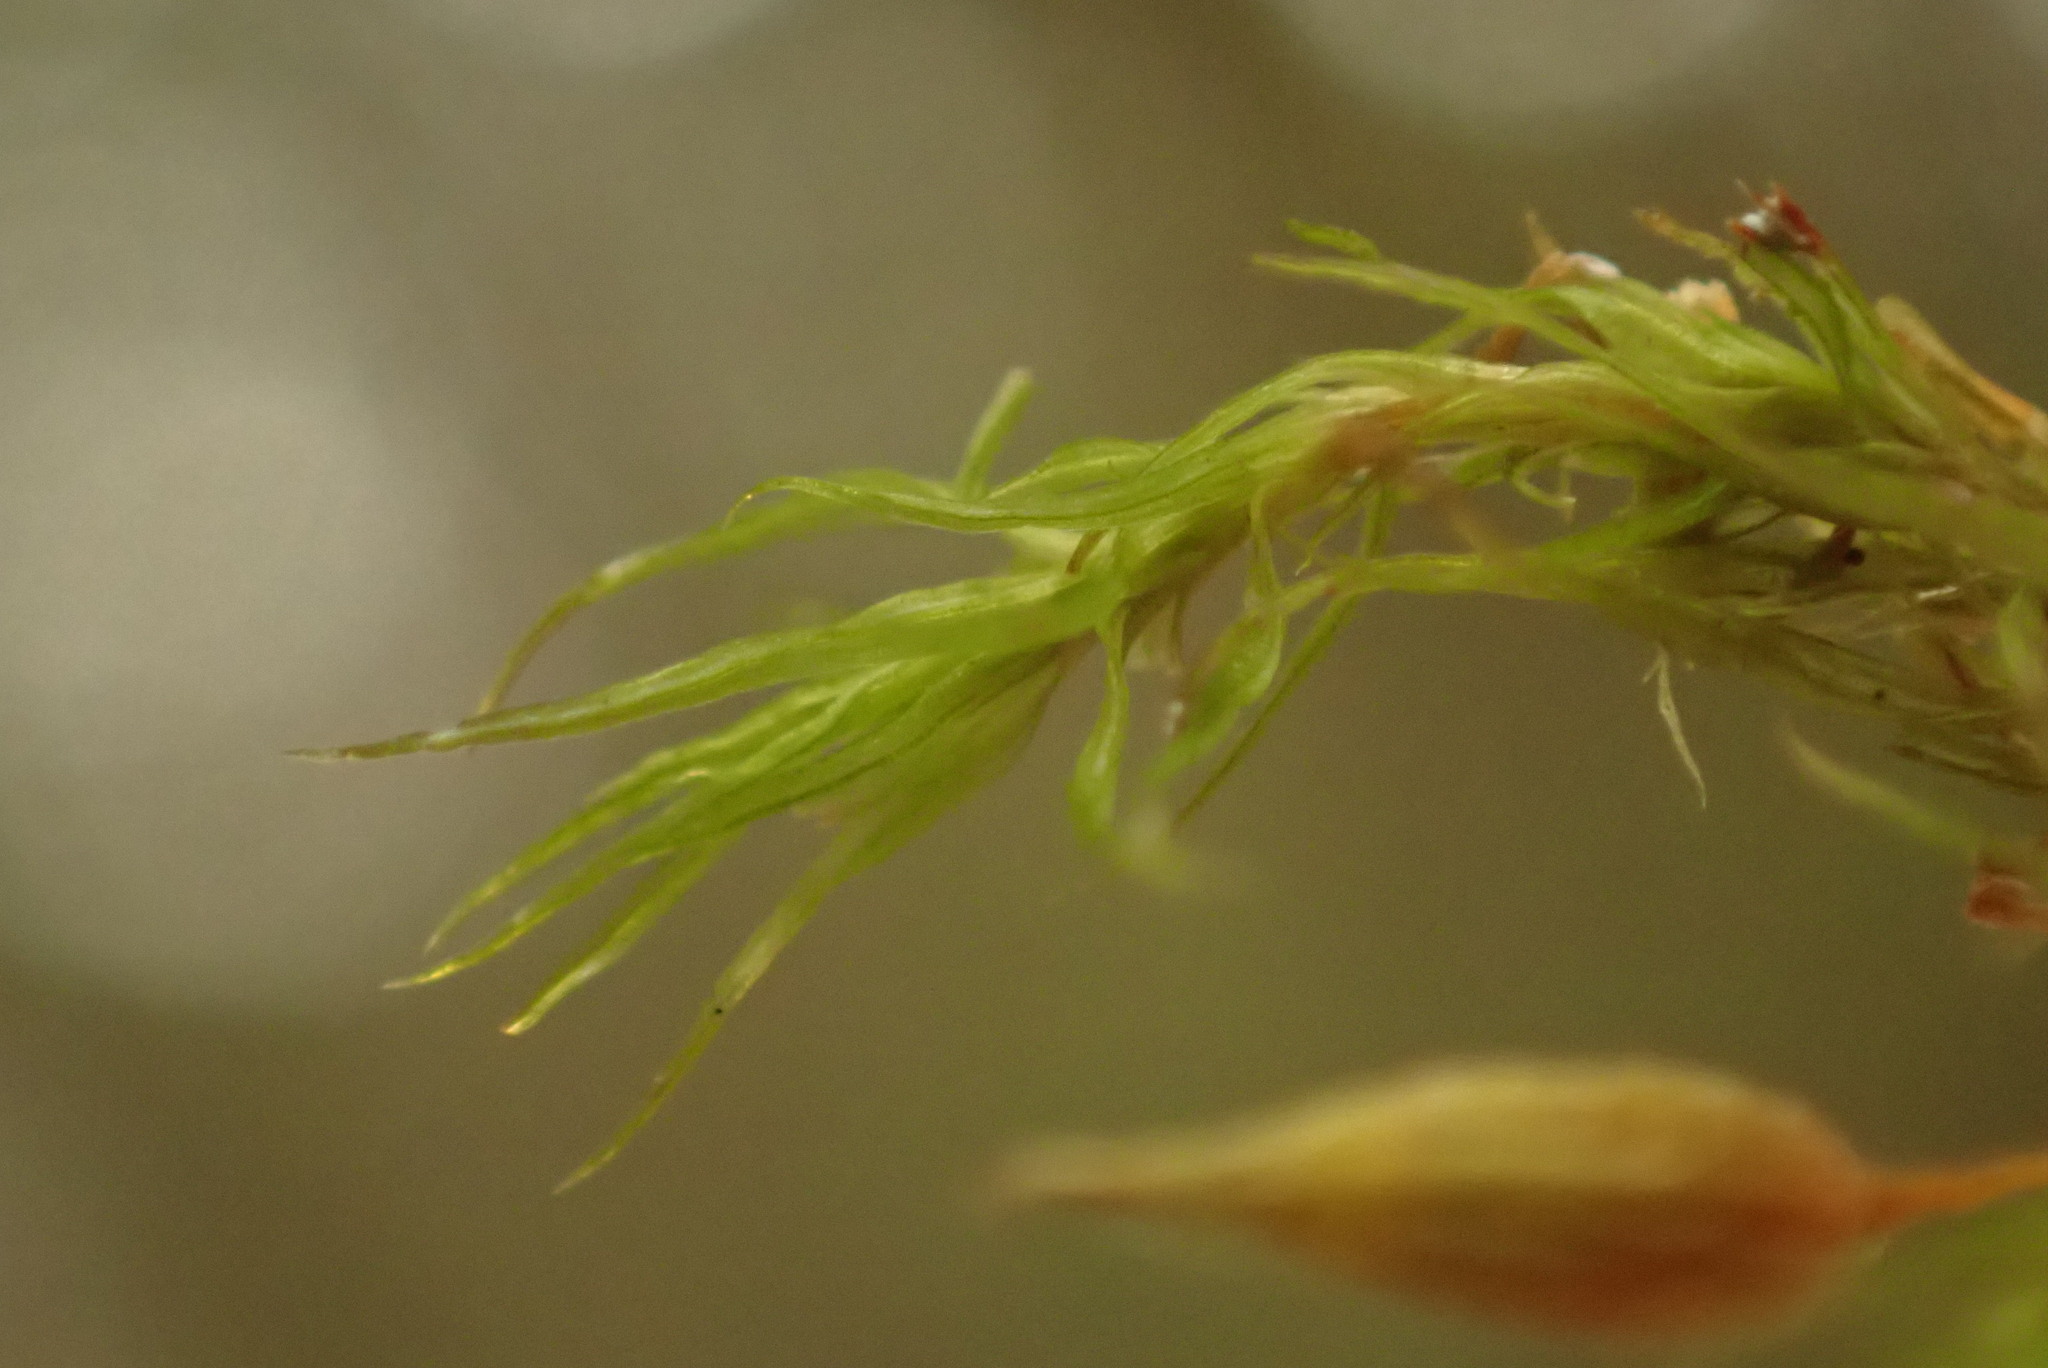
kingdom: Plantae
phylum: Bryophyta
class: Bryopsida
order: Orthotrichales
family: Orthotrichaceae
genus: Pulvigera
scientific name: Pulvigera pringlei
